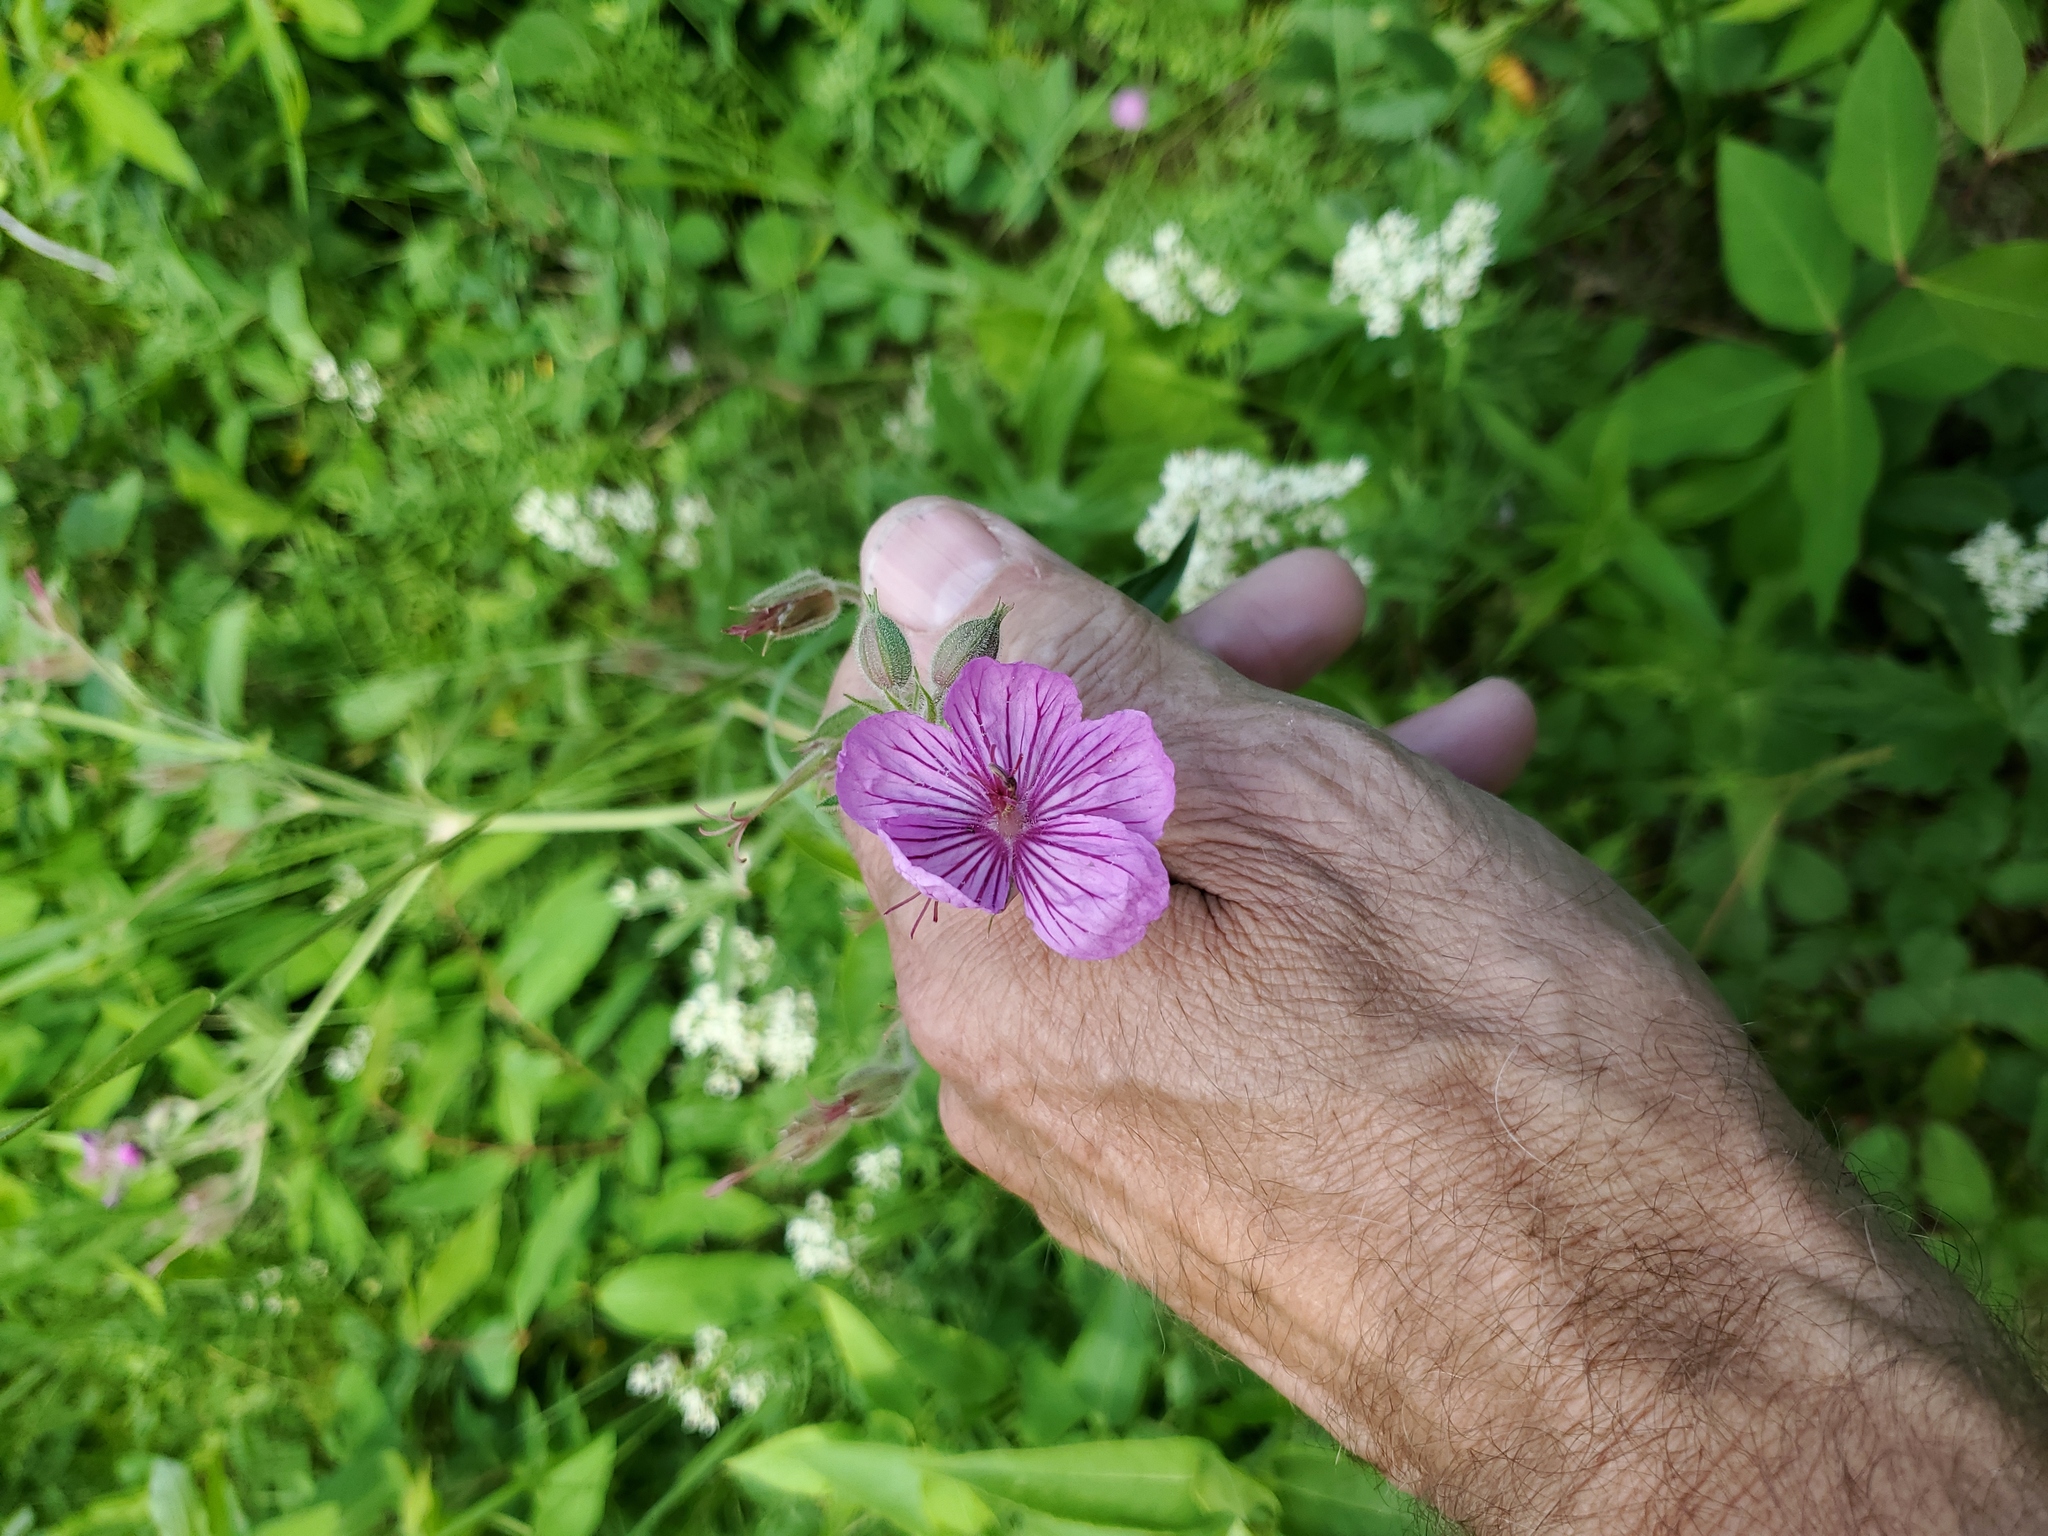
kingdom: Plantae
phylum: Tracheophyta
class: Magnoliopsida
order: Geraniales
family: Geraniaceae
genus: Geranium
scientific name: Geranium viscosissimum
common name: Purple geranium
